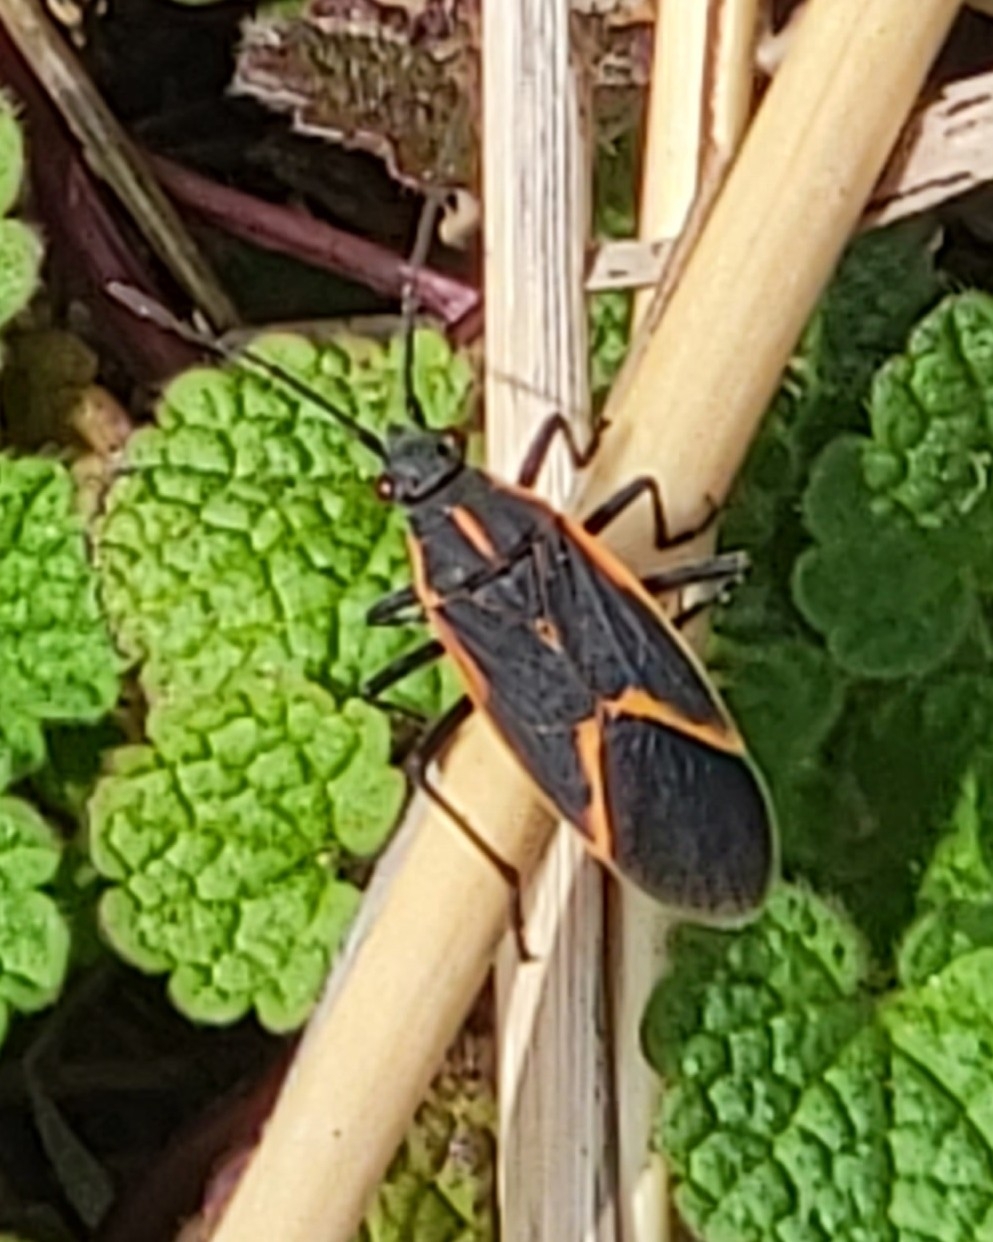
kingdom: Animalia
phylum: Arthropoda
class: Insecta
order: Hemiptera
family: Rhopalidae
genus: Boisea
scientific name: Boisea trivittata
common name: Boxelder bug
